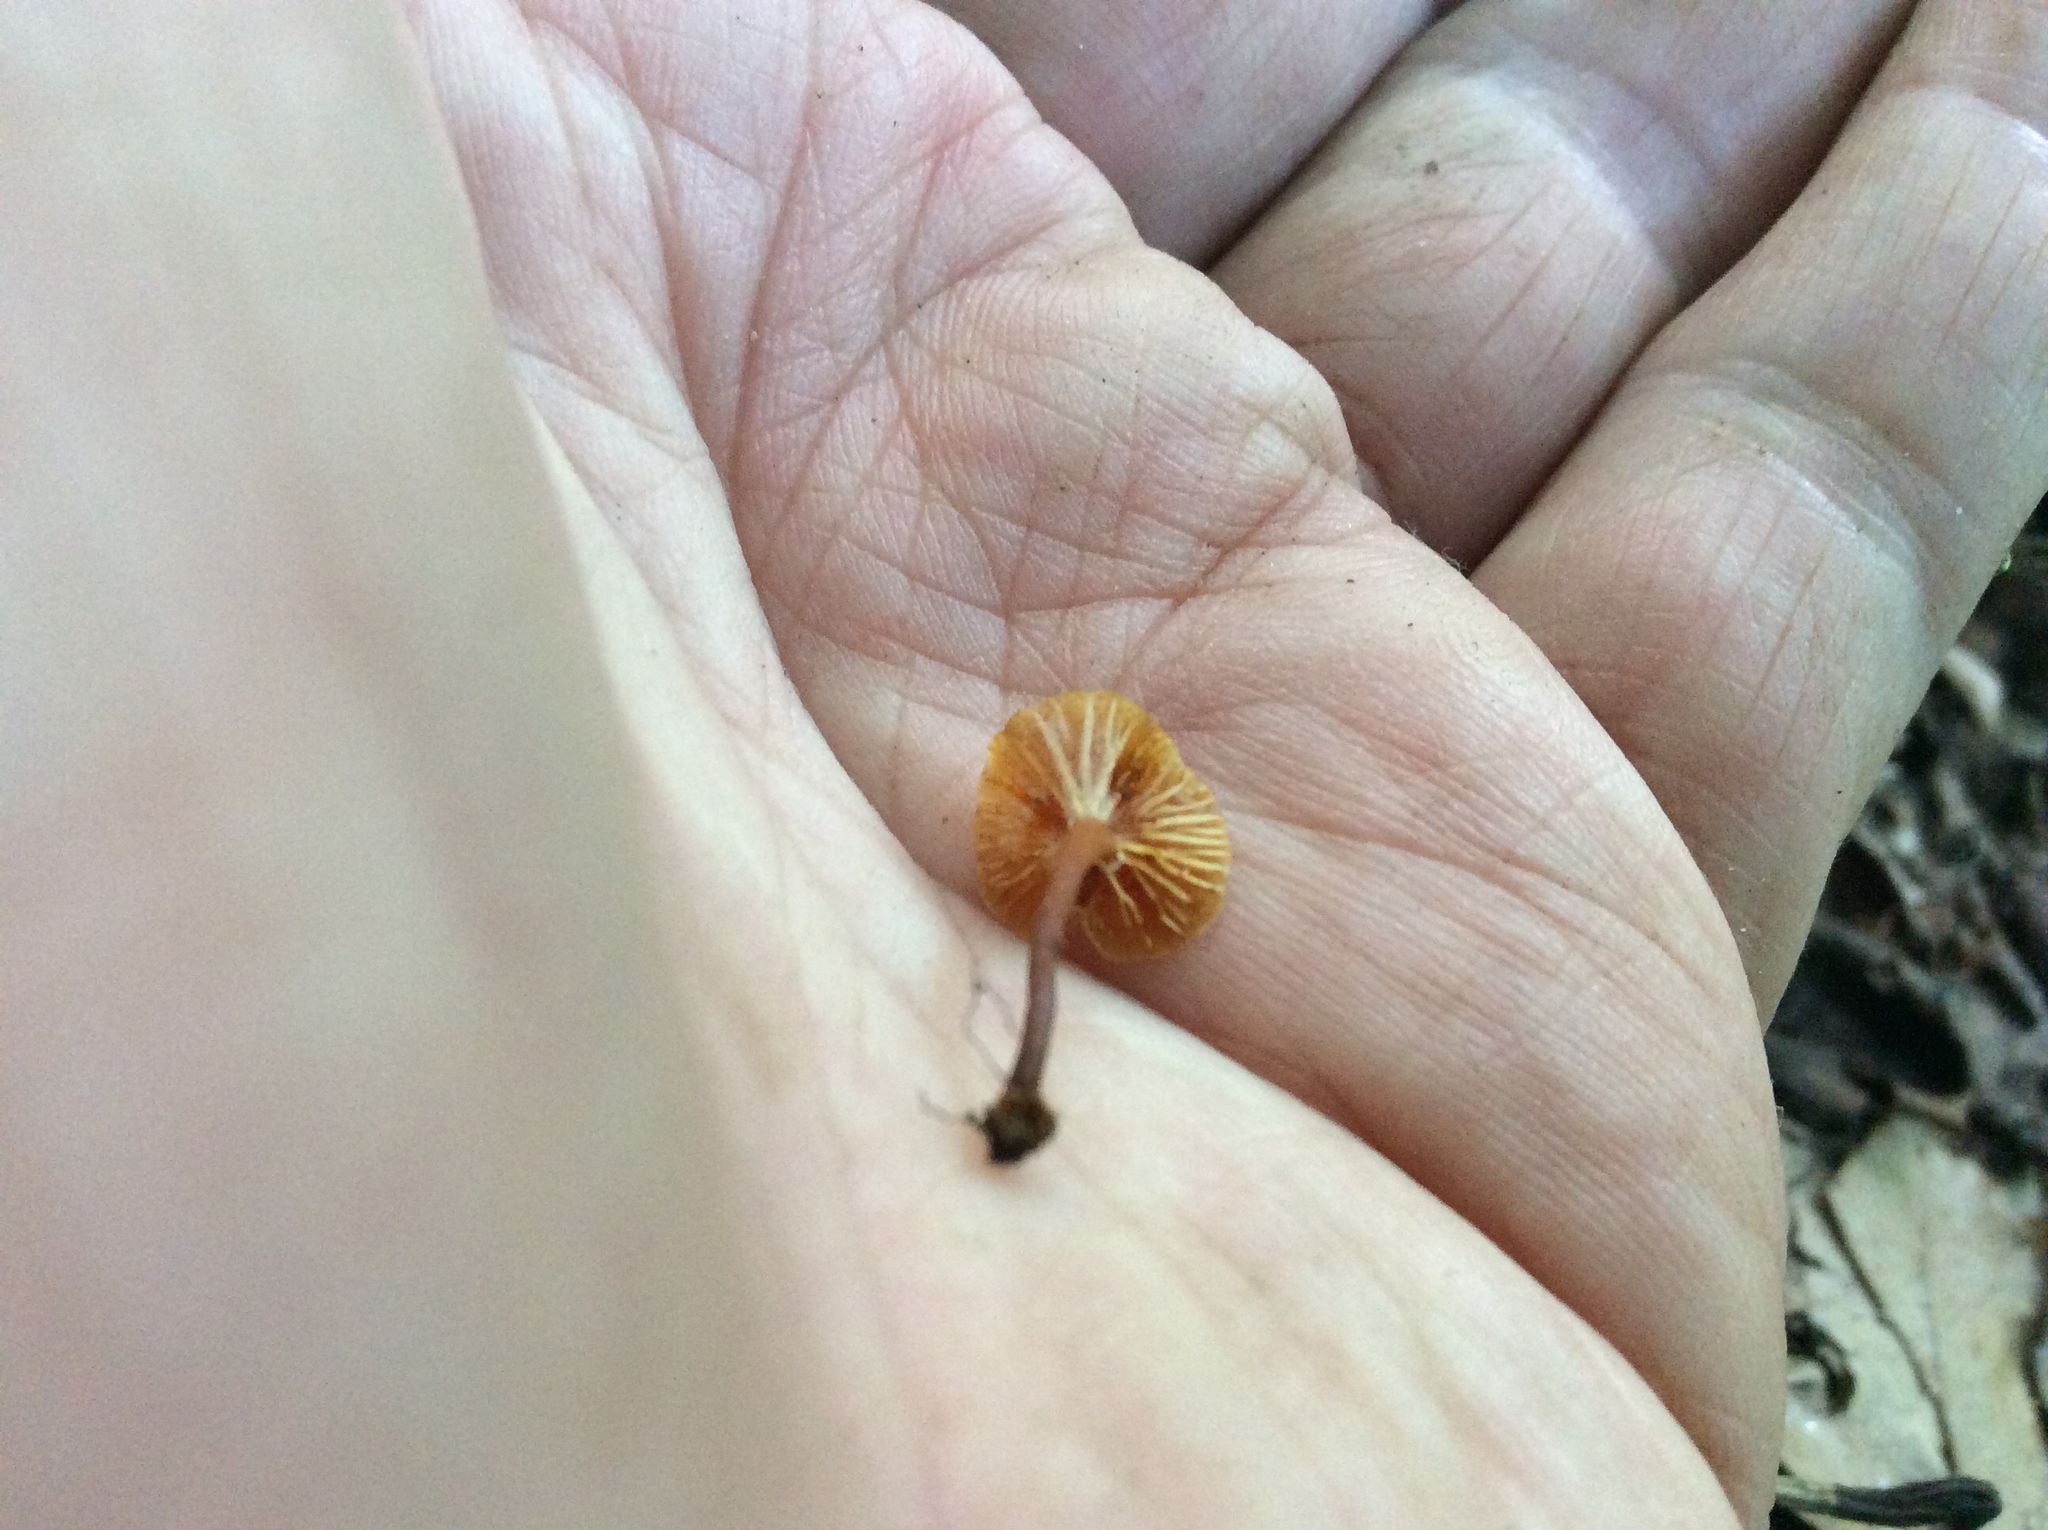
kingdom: Fungi
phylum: Basidiomycota
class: Agaricomycetes
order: Agaricales
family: Mycenaceae
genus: Xeromphalina
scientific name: Xeromphalina campanella
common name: Pinewood gingertail
